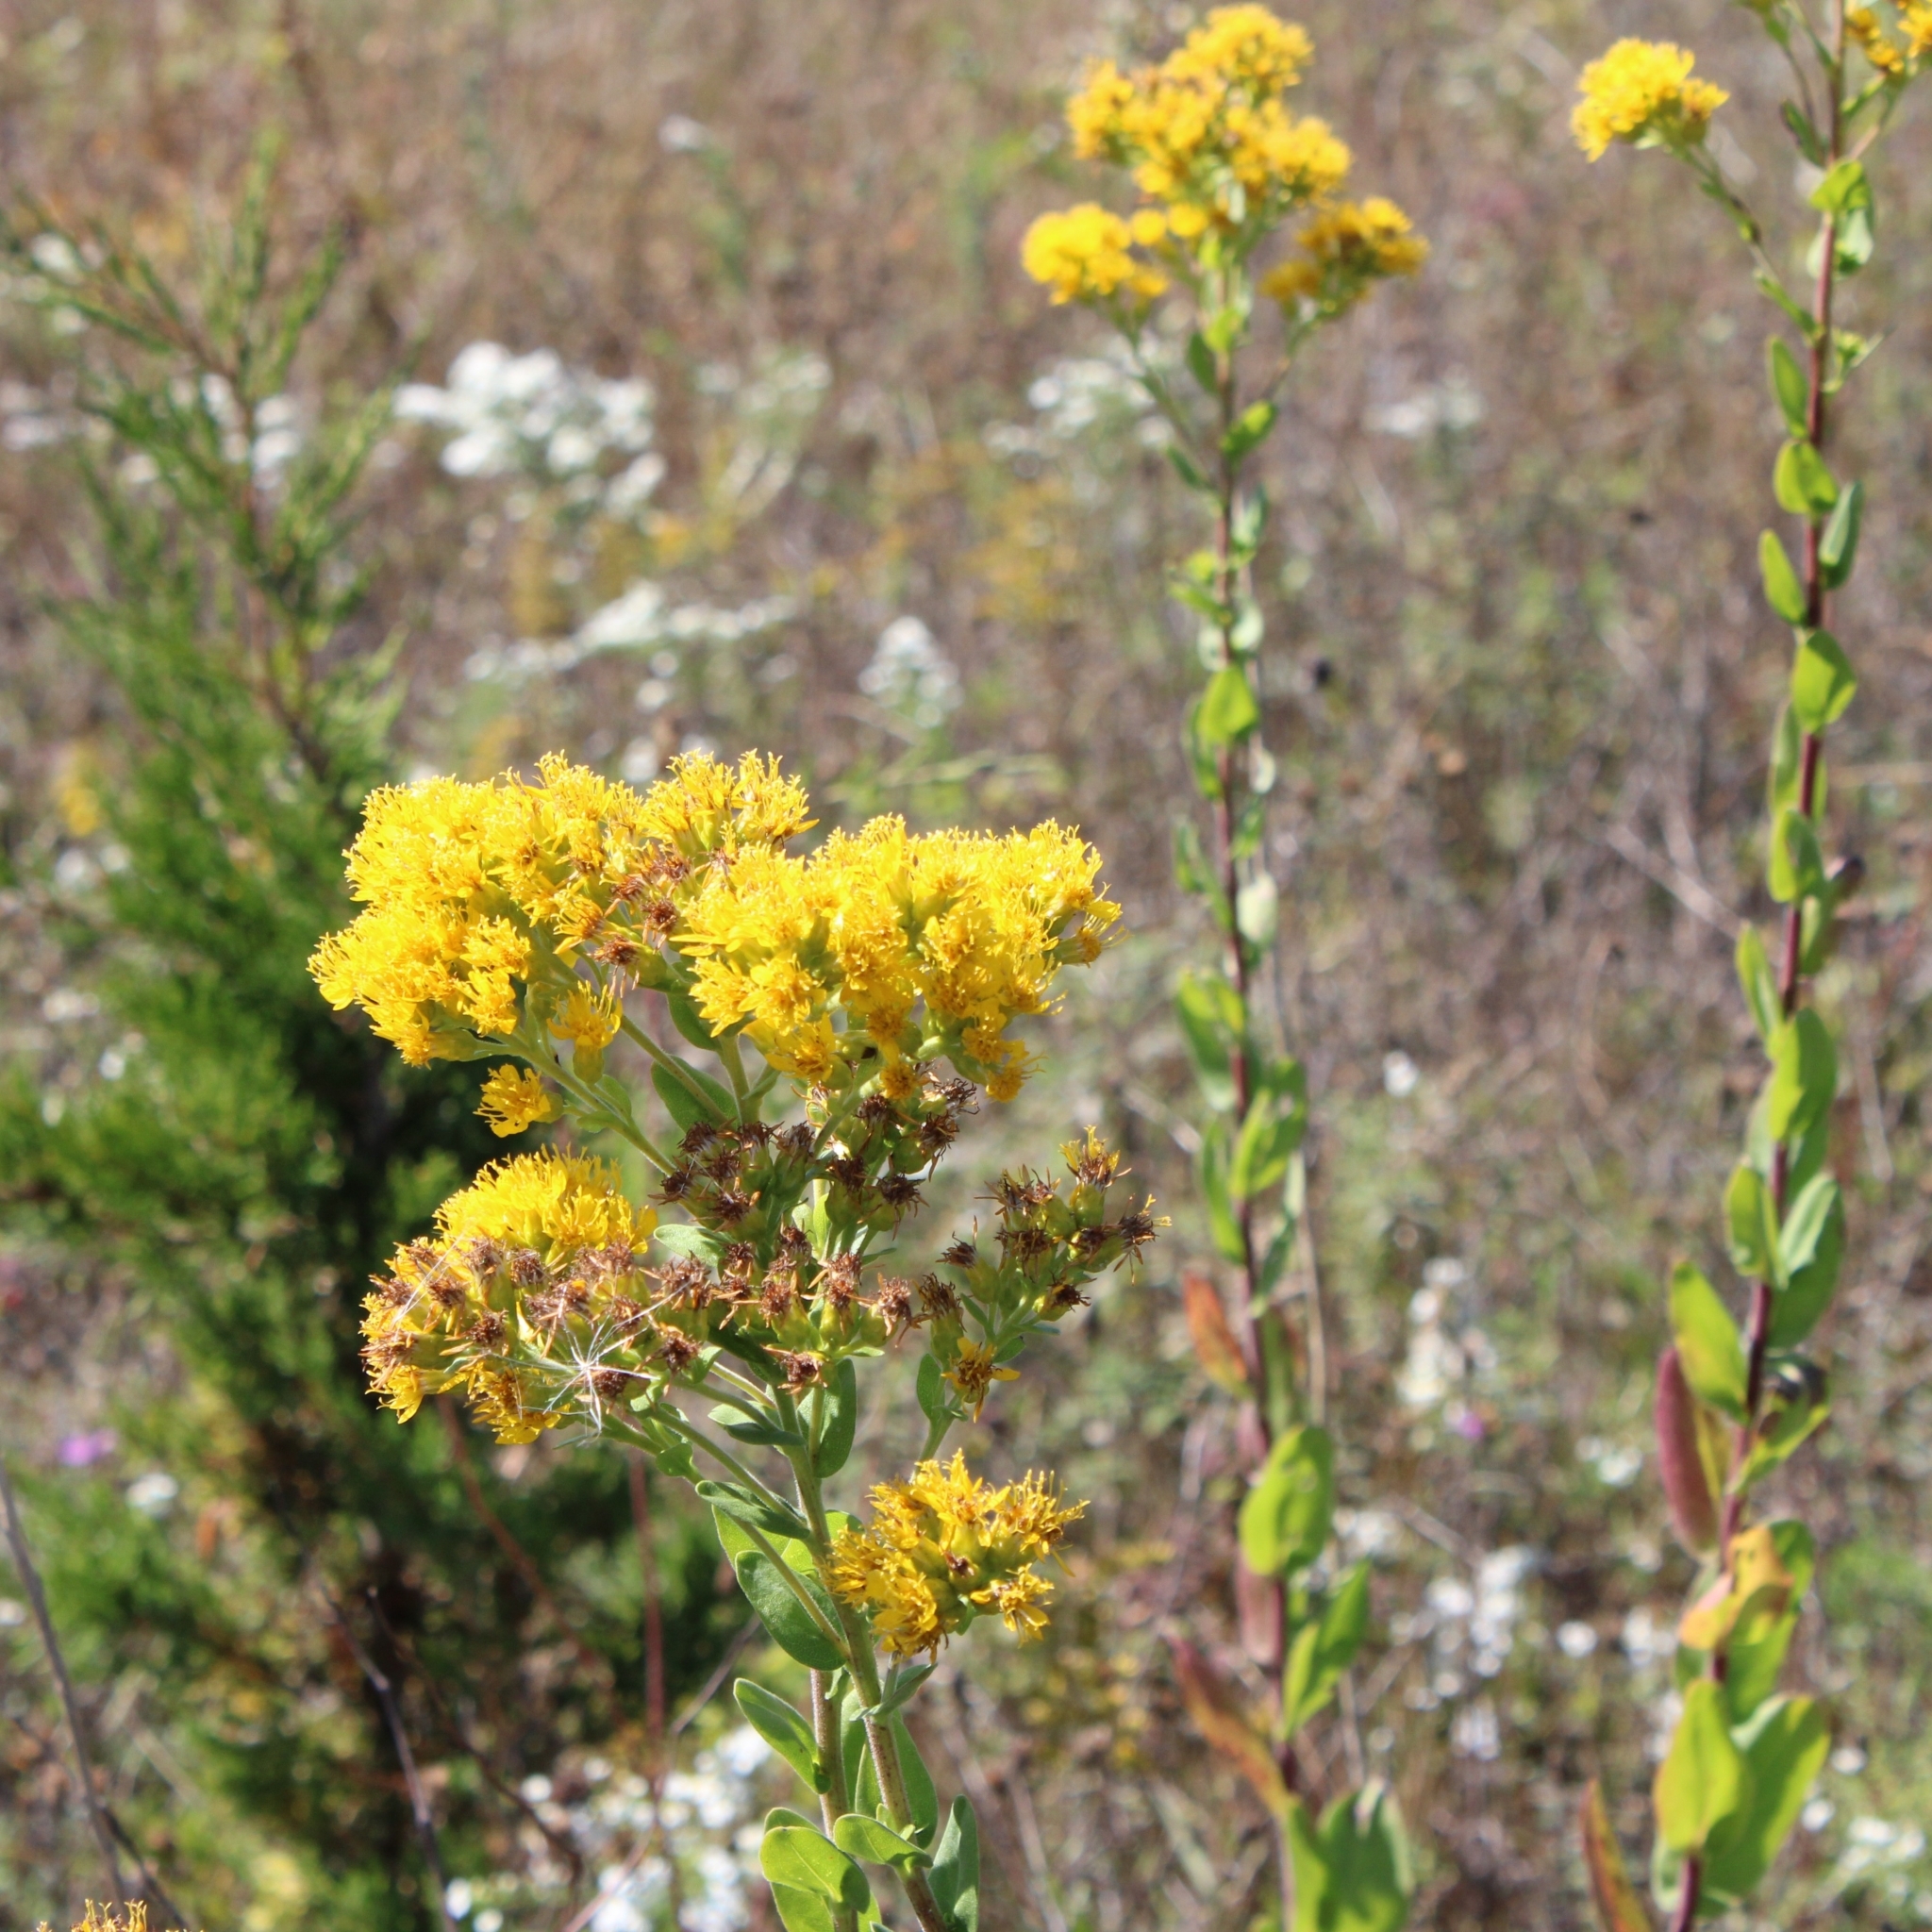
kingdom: Plantae
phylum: Tracheophyta
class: Magnoliopsida
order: Asterales
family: Asteraceae
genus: Solidago
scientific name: Solidago rigida
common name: Rigid goldenrod
